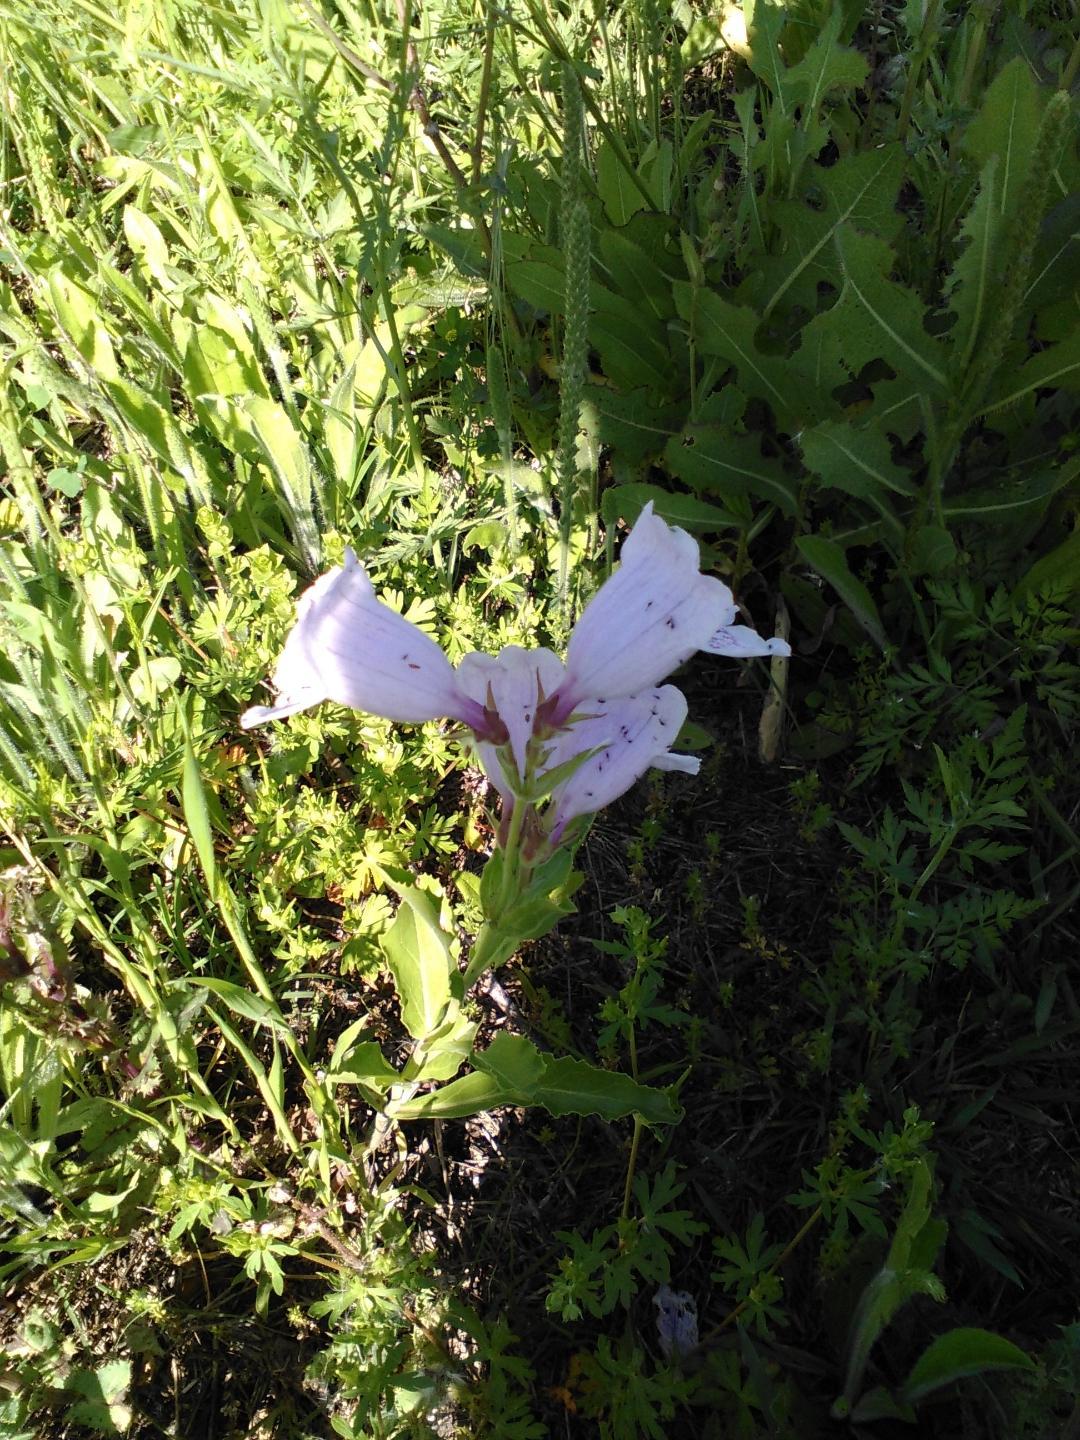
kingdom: Plantae
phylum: Tracheophyta
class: Magnoliopsida
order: Lamiales
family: Plantaginaceae
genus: Penstemon
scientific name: Penstemon cobaea
